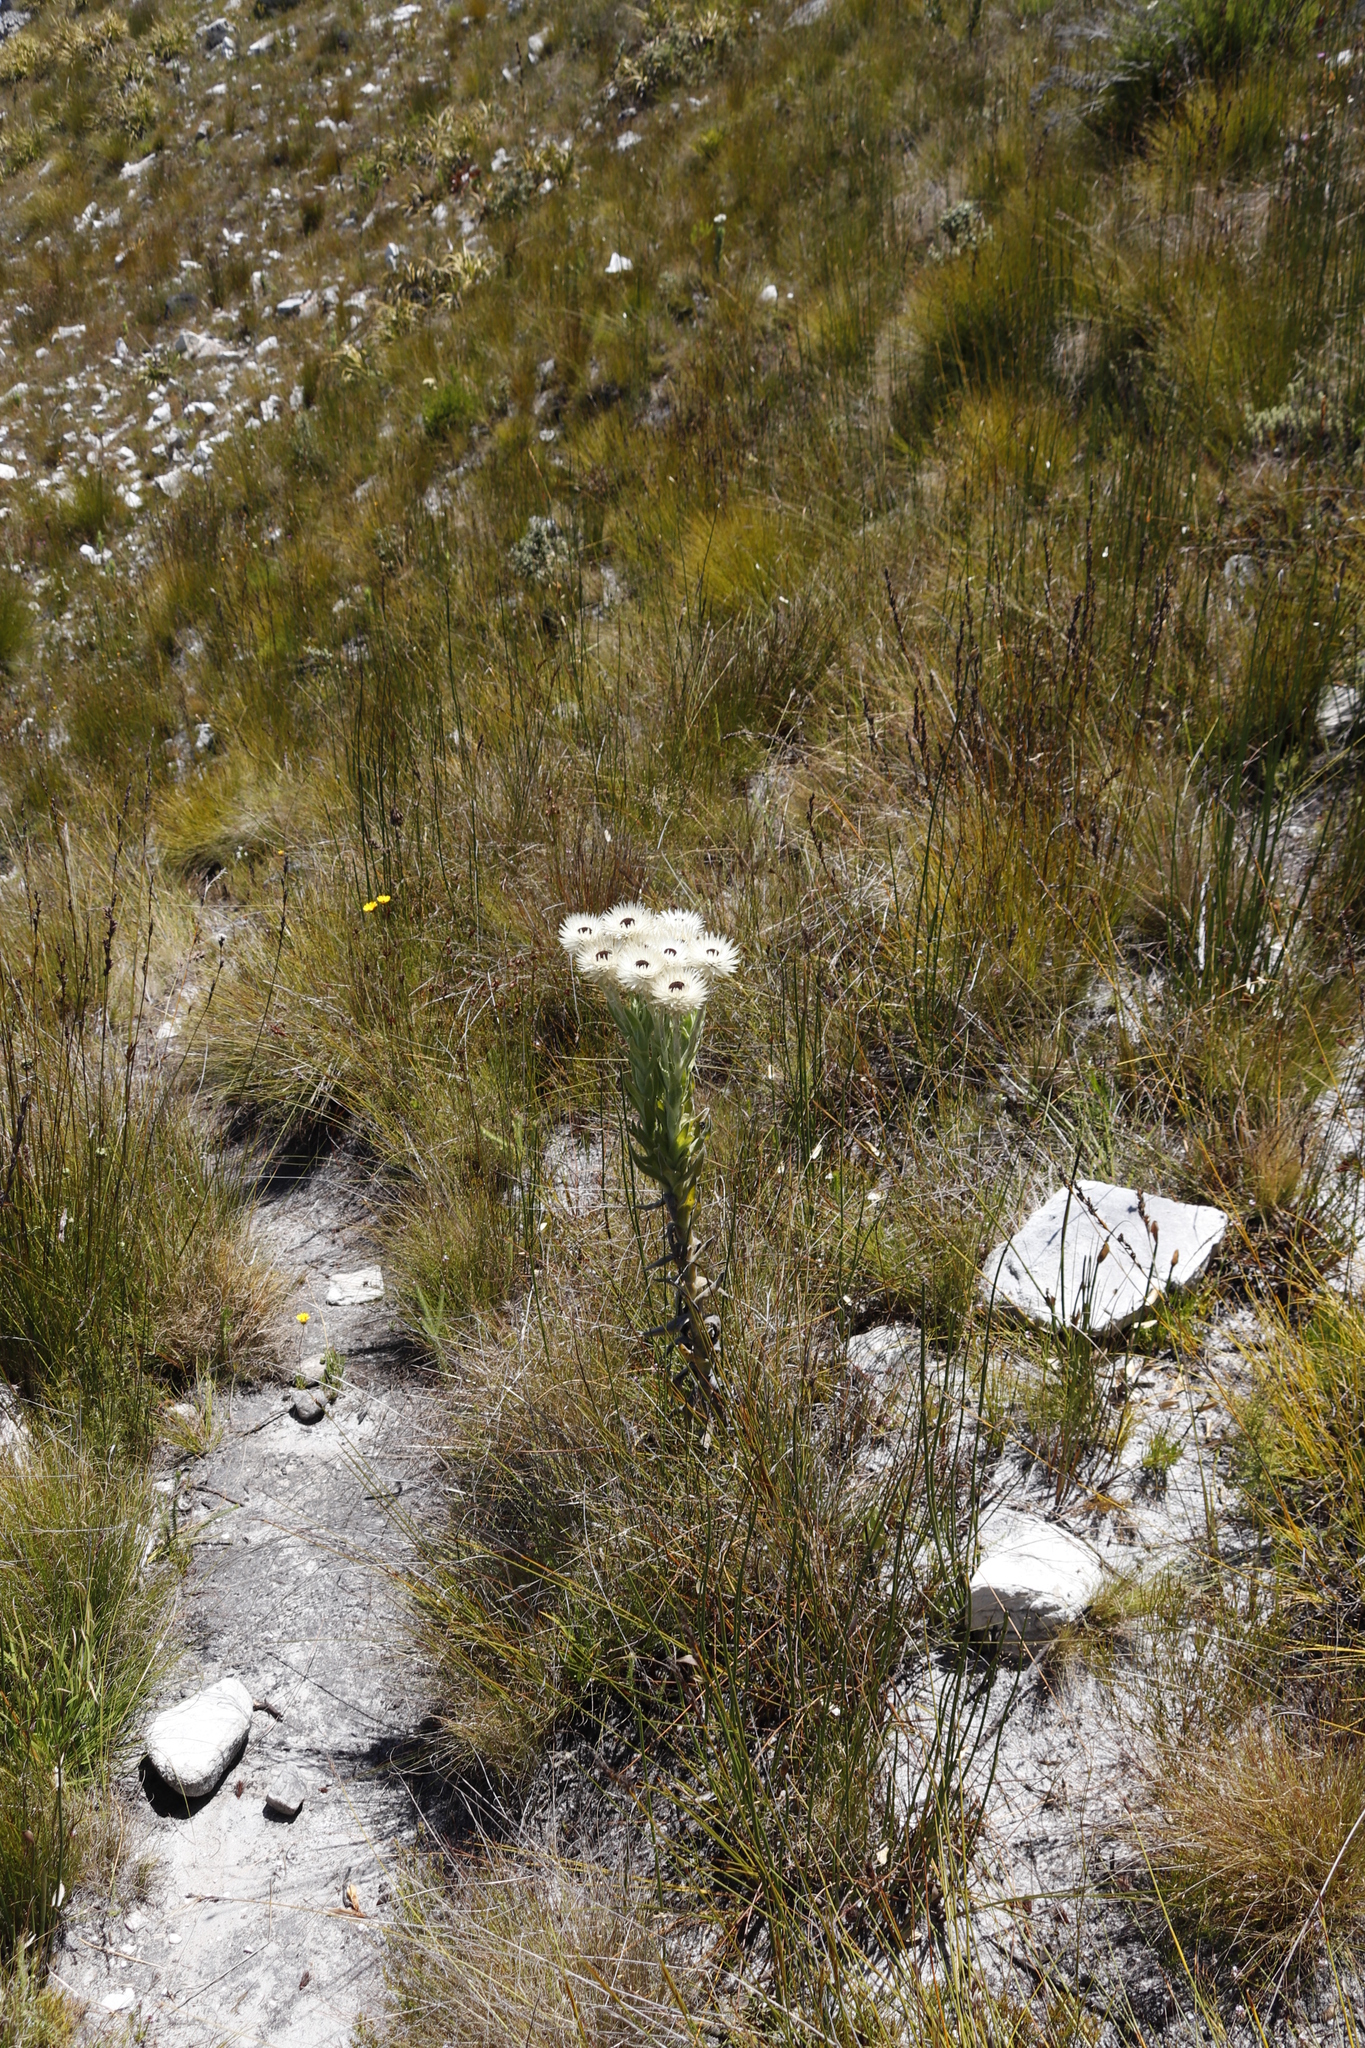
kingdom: Plantae
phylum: Tracheophyta
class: Magnoliopsida
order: Asterales
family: Asteraceae
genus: Syncarpha
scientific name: Syncarpha vestita
